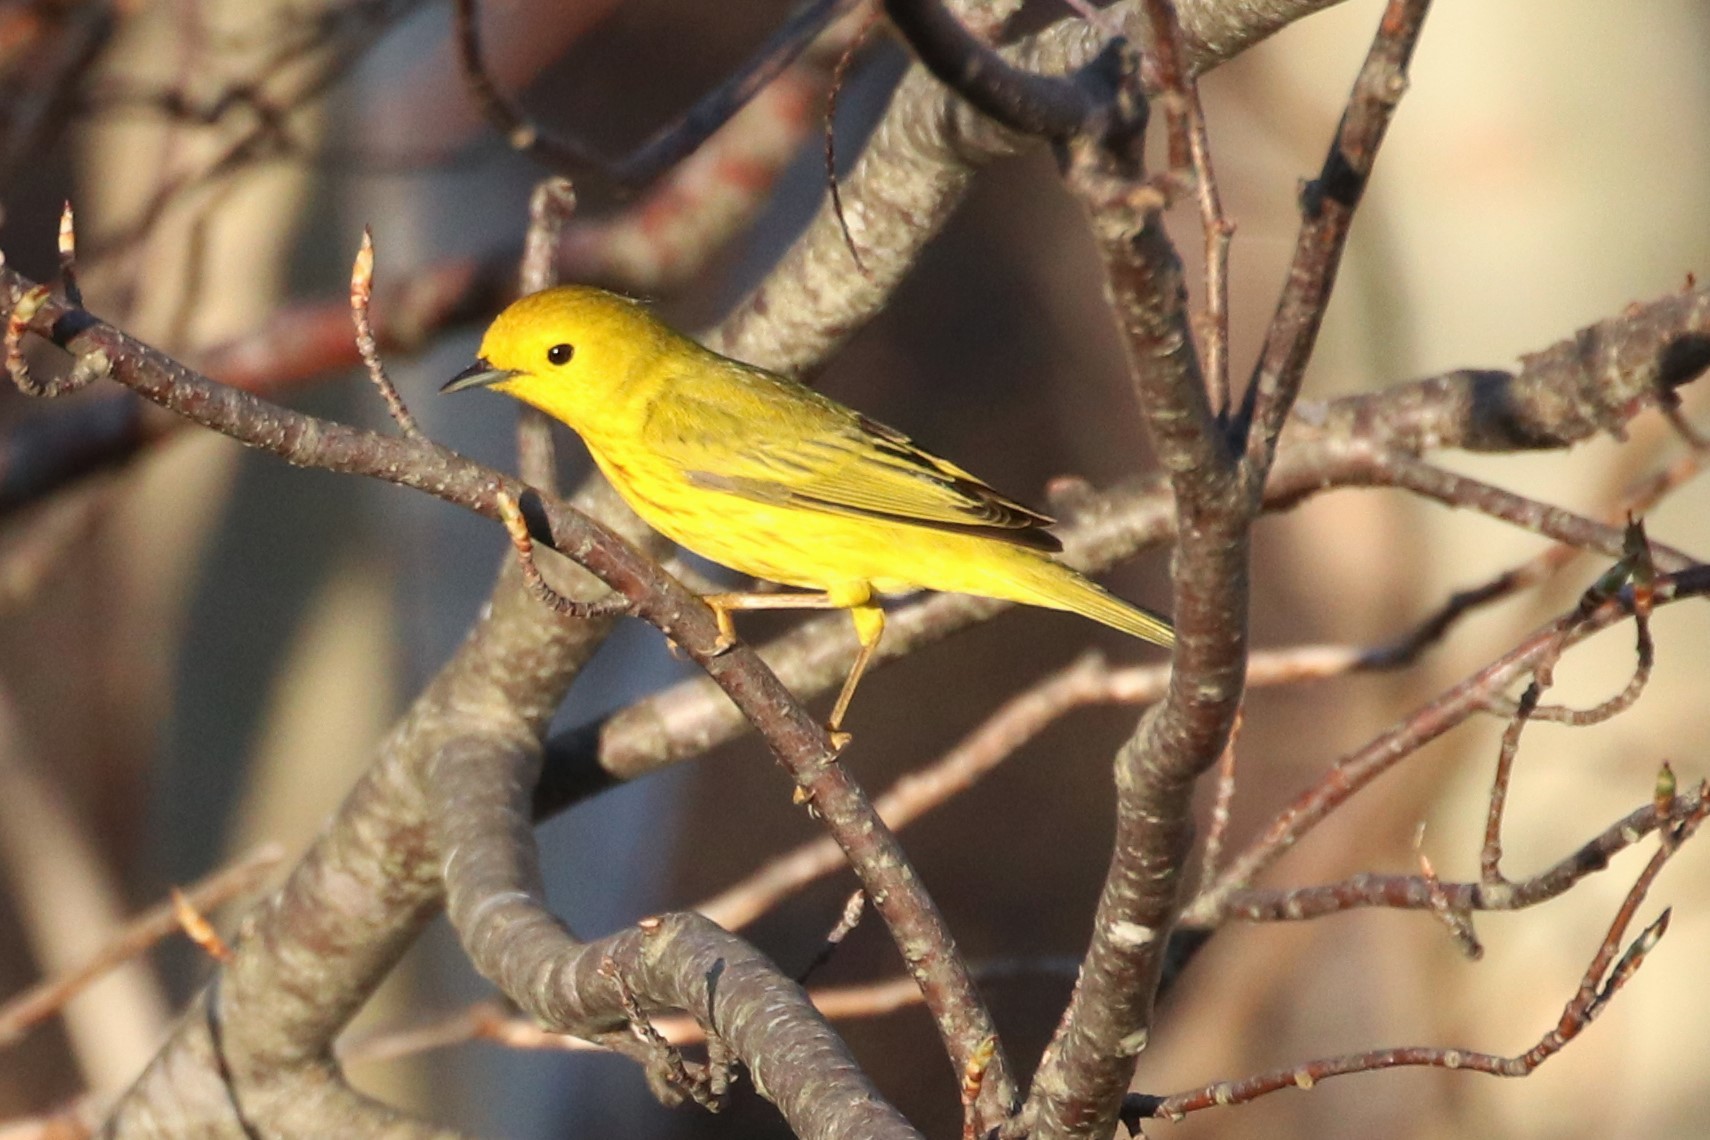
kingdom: Animalia
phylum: Chordata
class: Aves
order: Passeriformes
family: Parulidae
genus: Setophaga
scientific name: Setophaga petechia
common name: Yellow warbler
